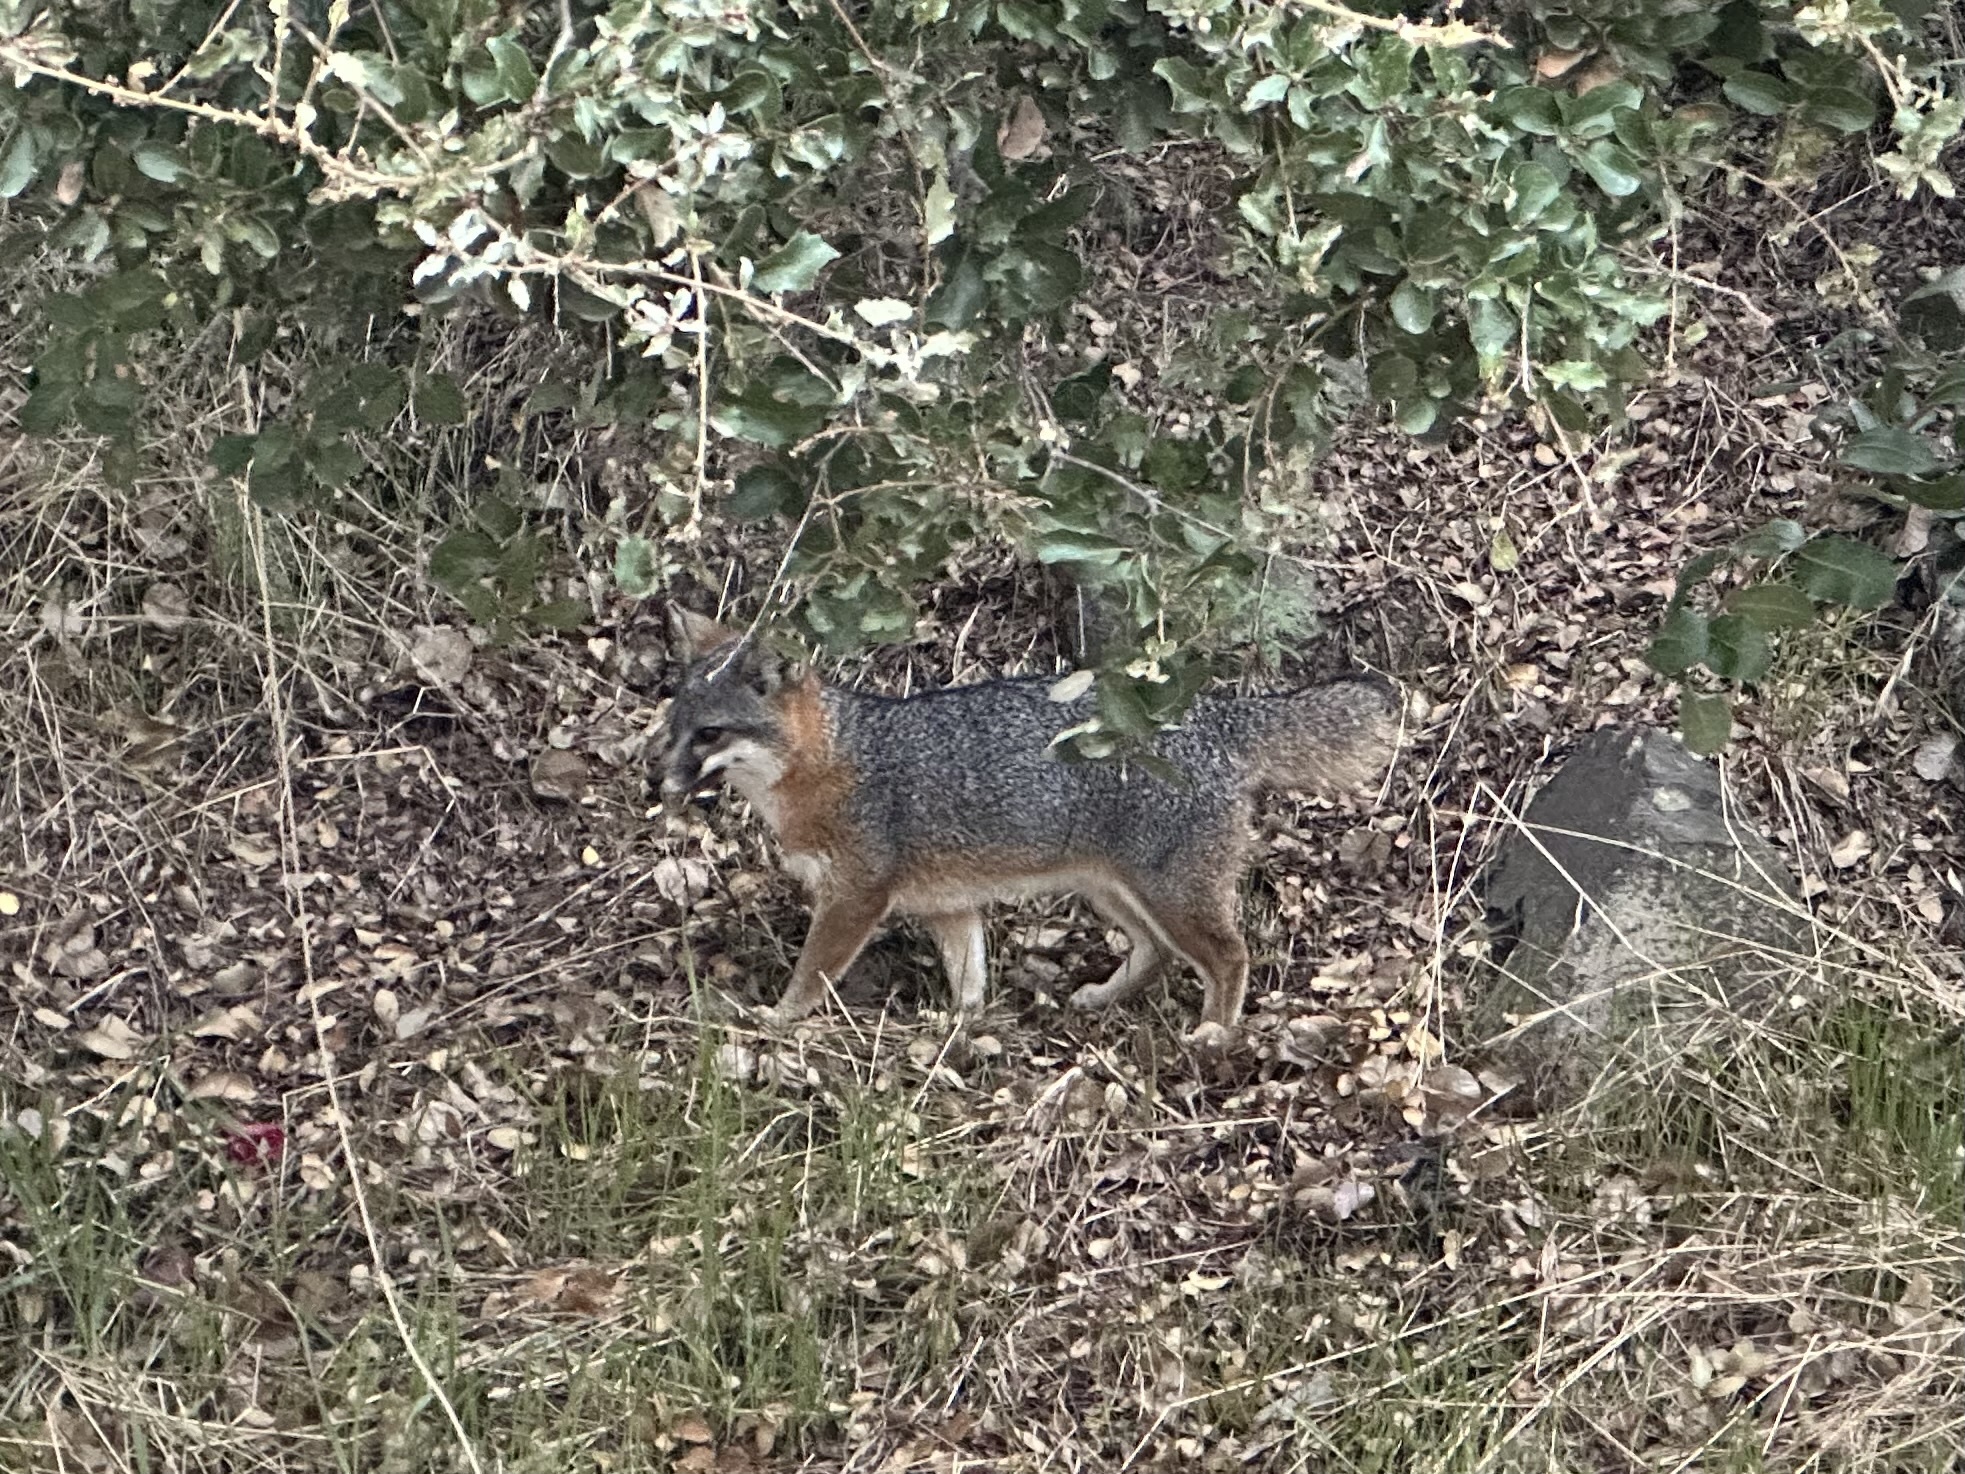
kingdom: Animalia
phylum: Chordata
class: Mammalia
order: Carnivora
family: Canidae
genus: Urocyon
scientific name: Urocyon littoralis
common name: Island gray fox
